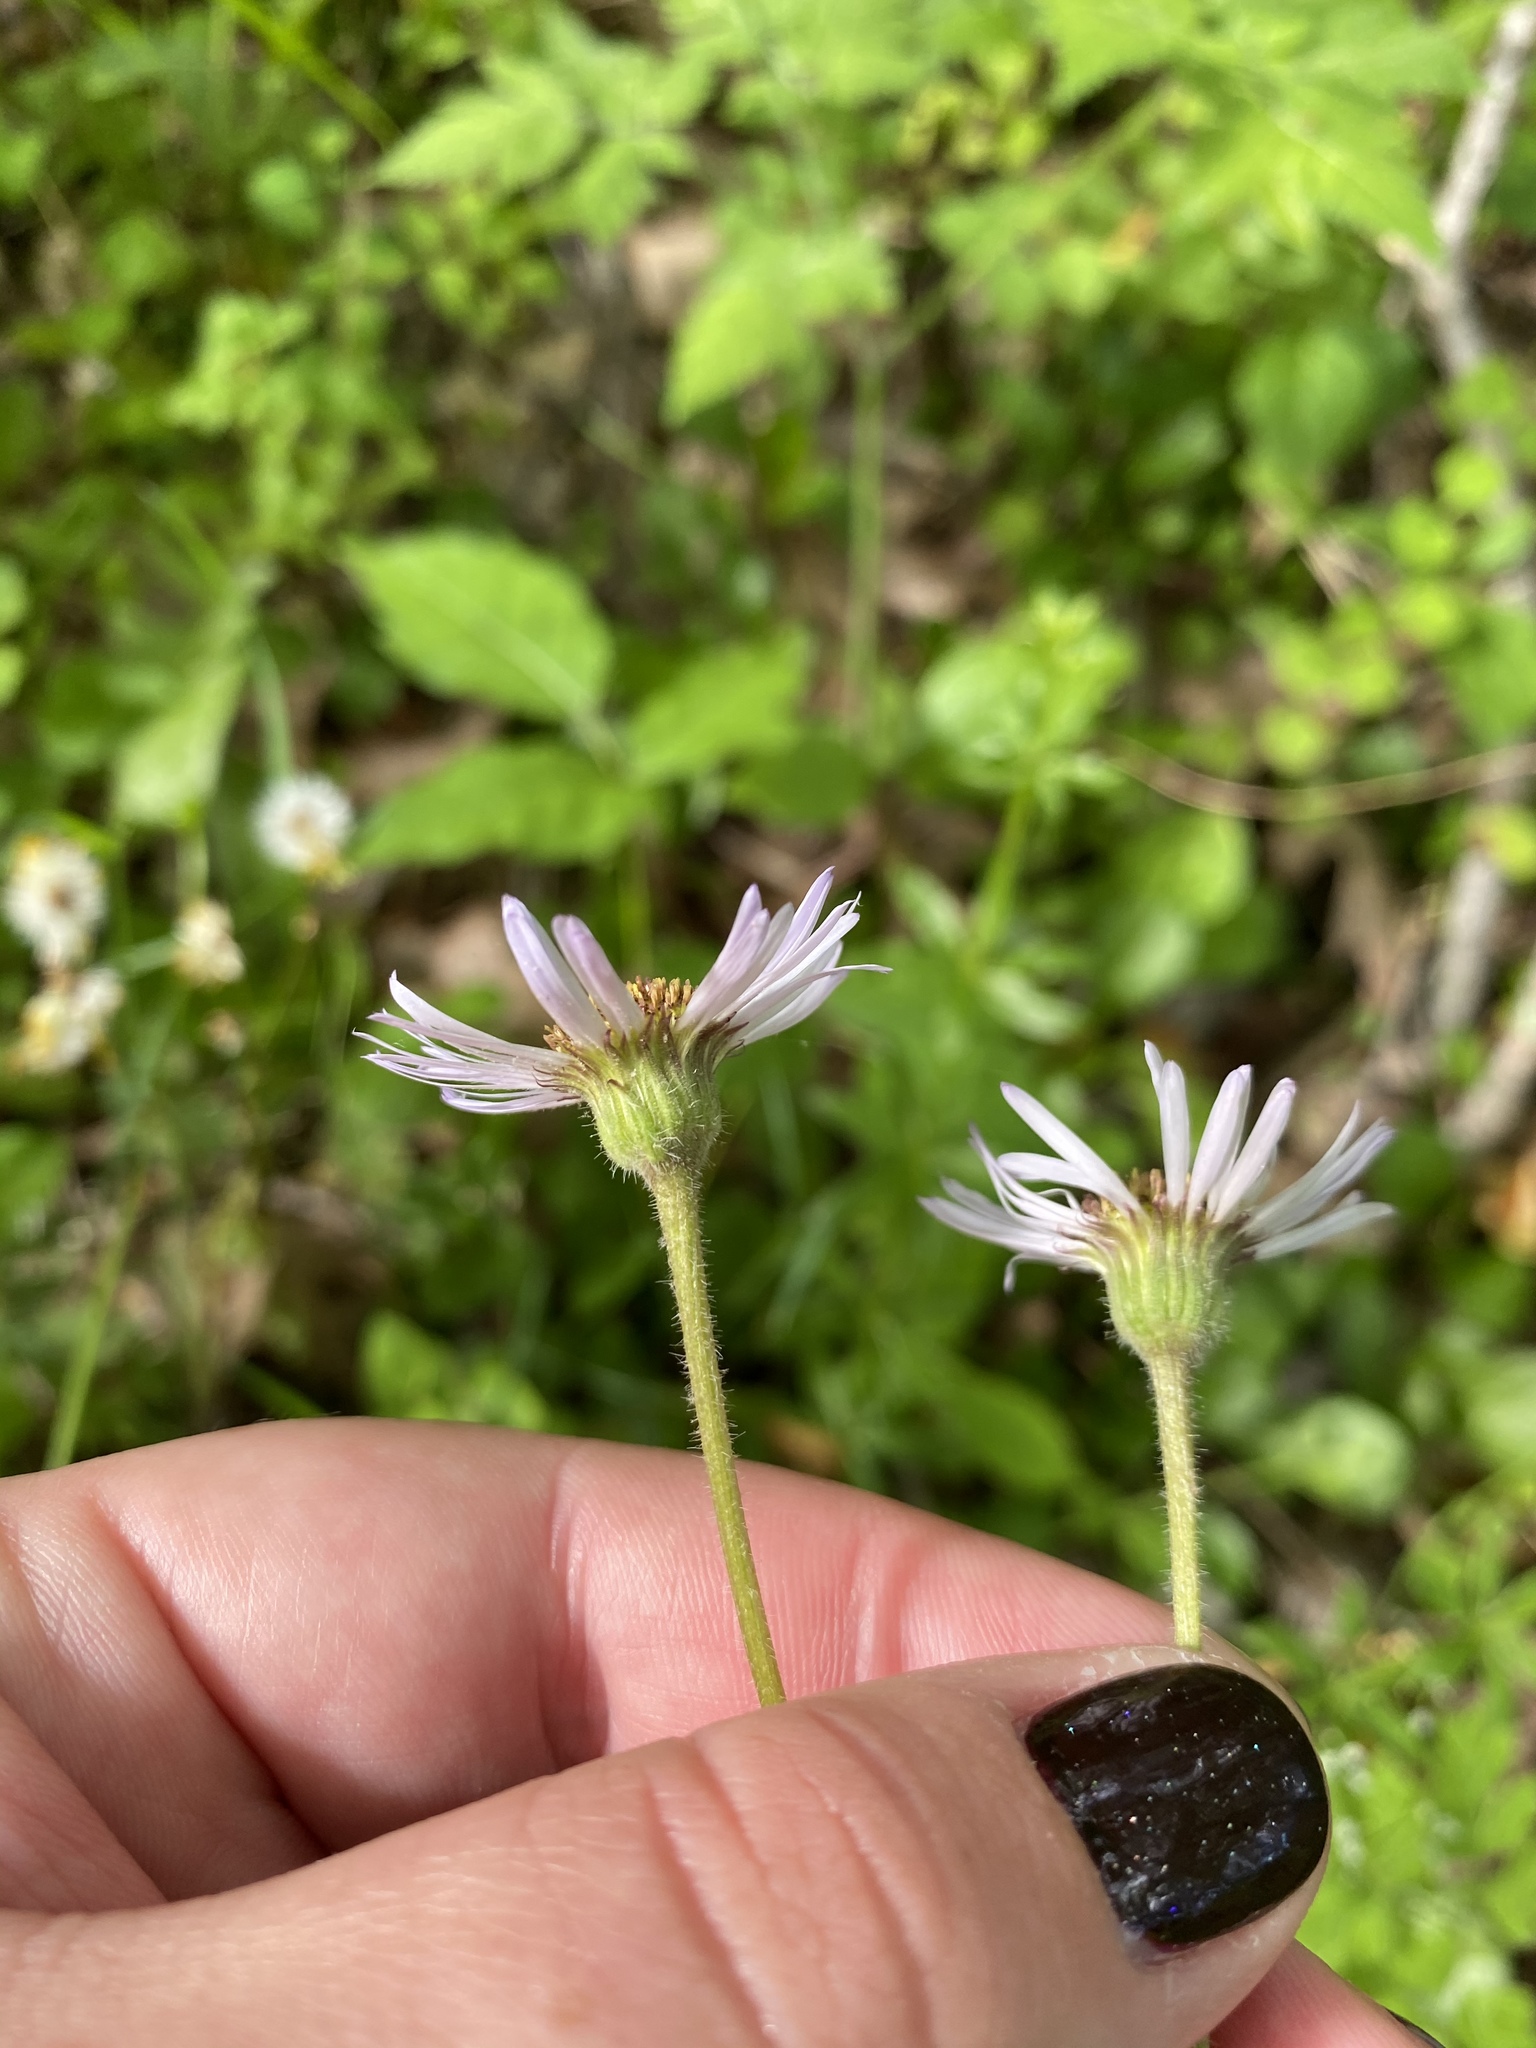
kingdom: Plantae
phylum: Tracheophyta
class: Magnoliopsida
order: Asterales
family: Asteraceae
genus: Erigeron
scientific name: Erigeron pulchellus
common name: Hairy fleabane
